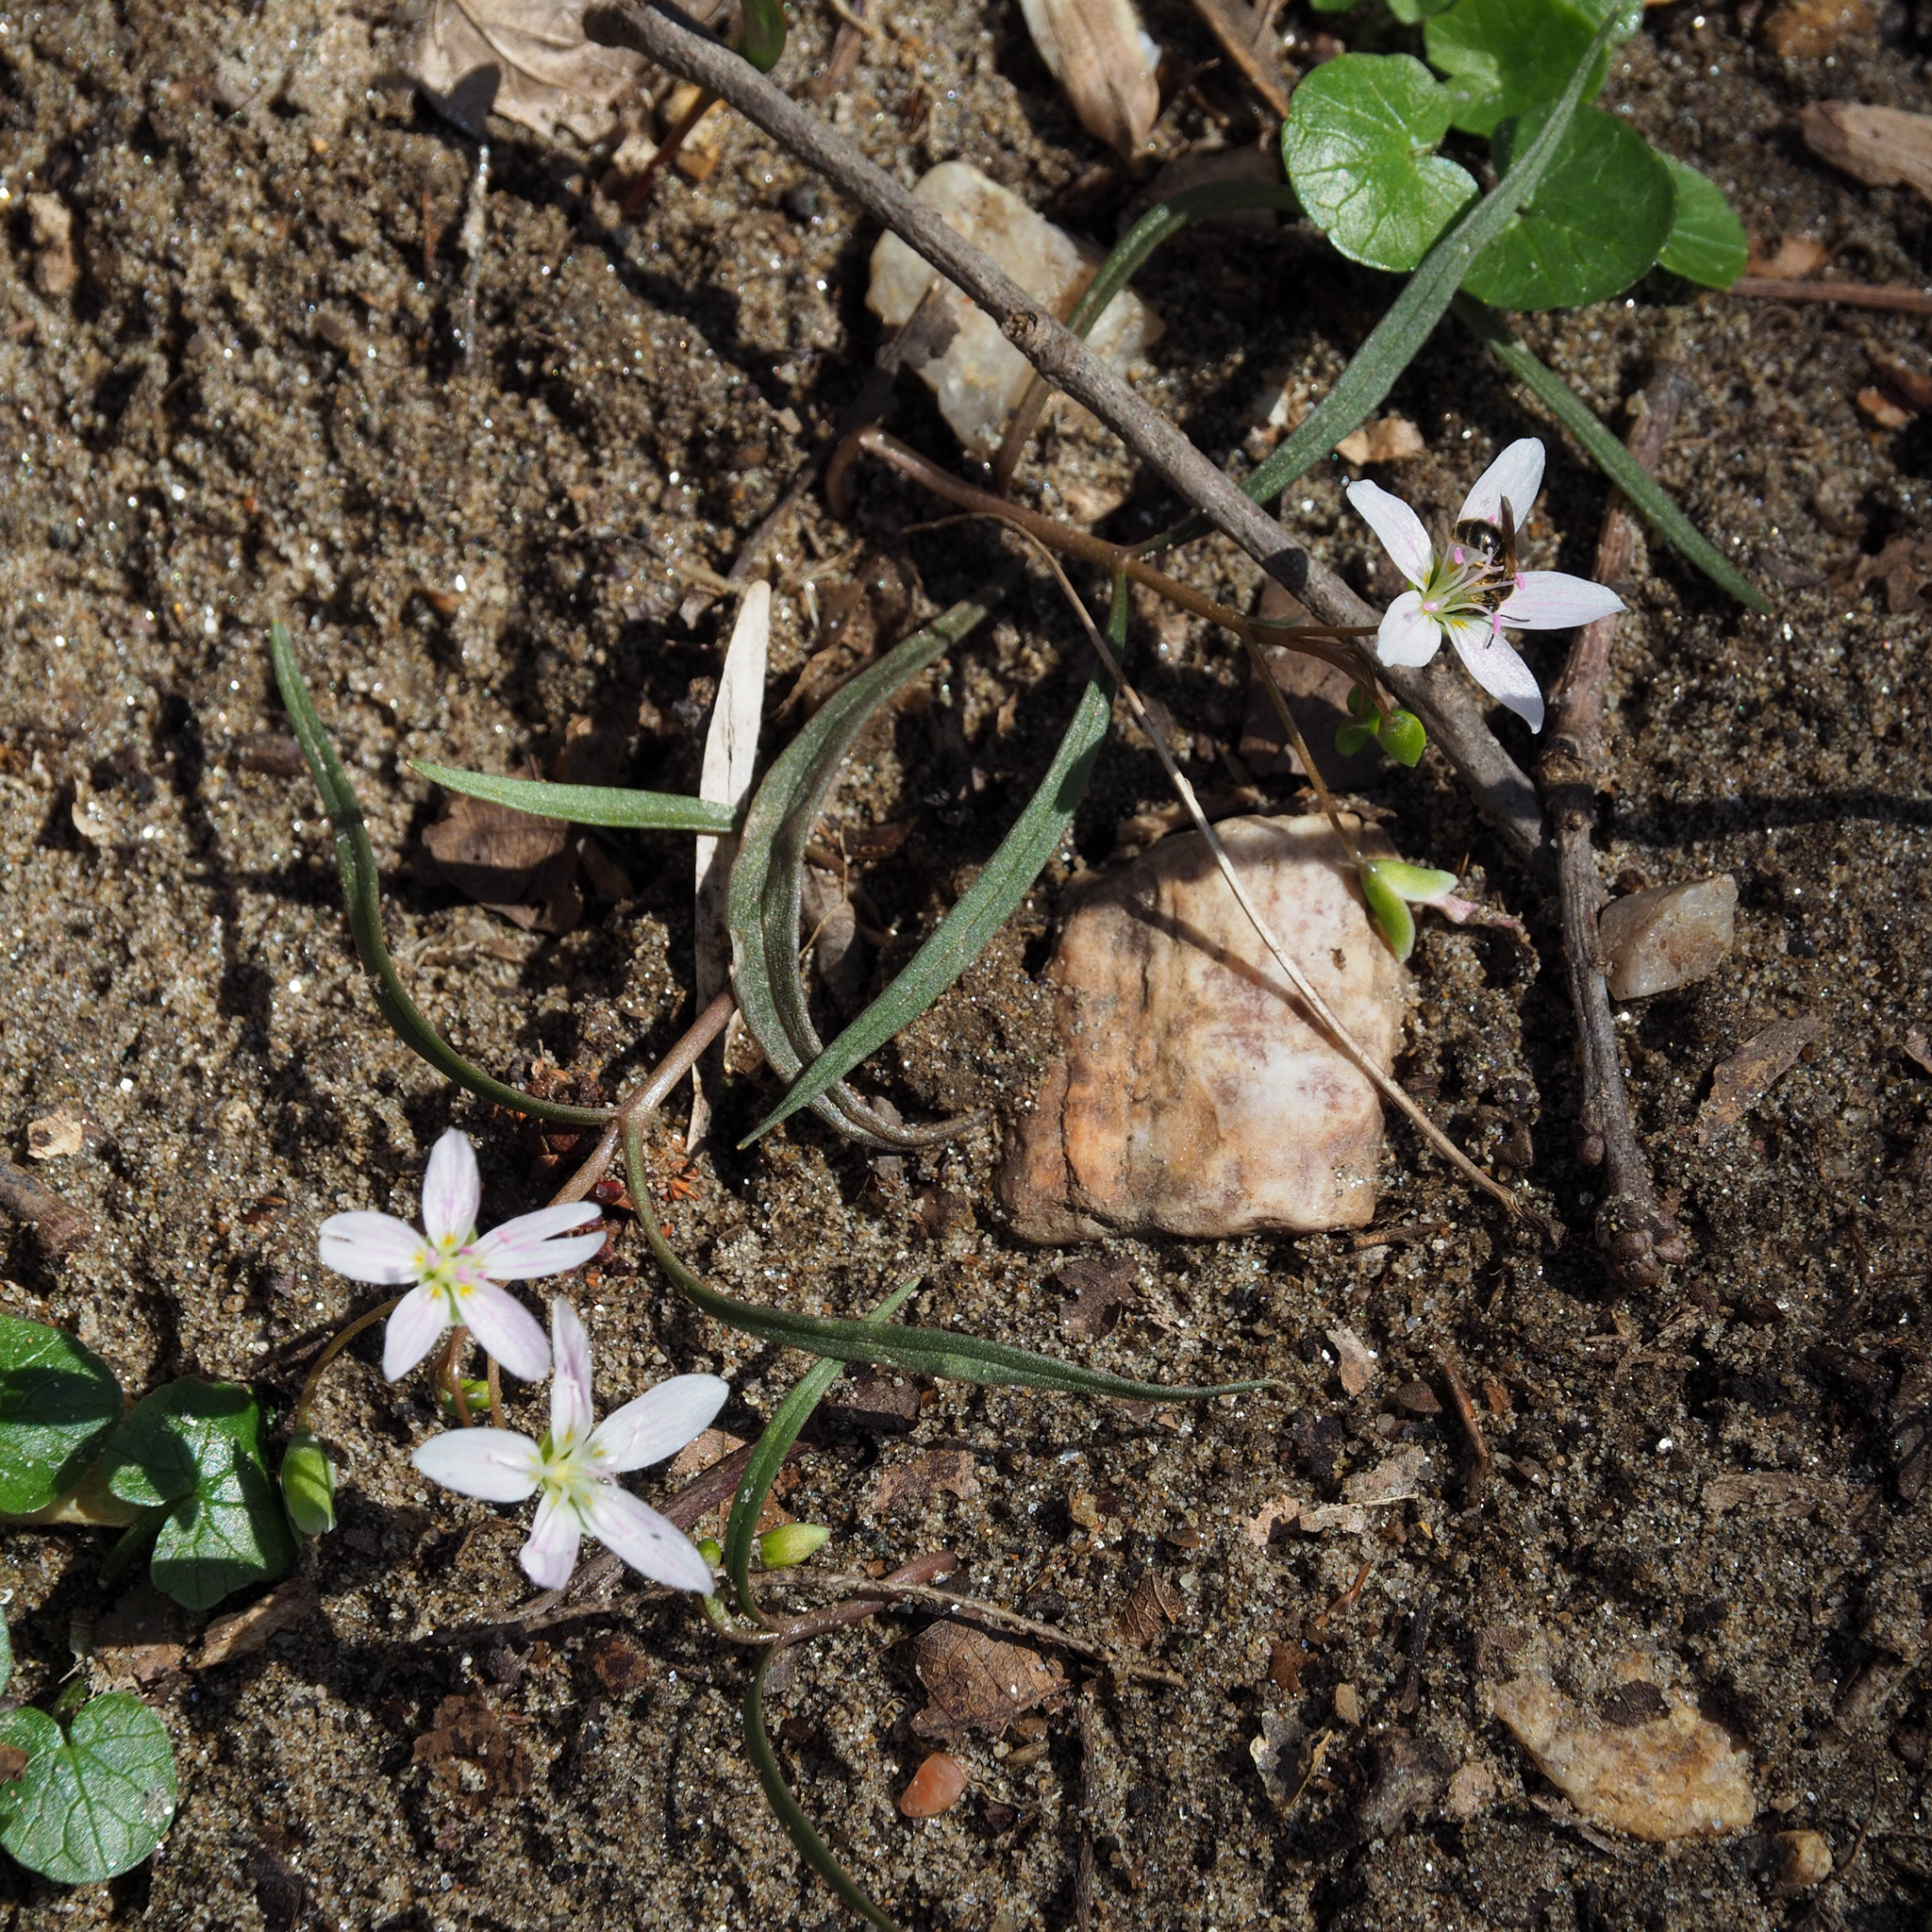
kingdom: Plantae
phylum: Tracheophyta
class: Magnoliopsida
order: Caryophyllales
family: Montiaceae
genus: Claytonia
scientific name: Claytonia virginica
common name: Virginia springbeauty
